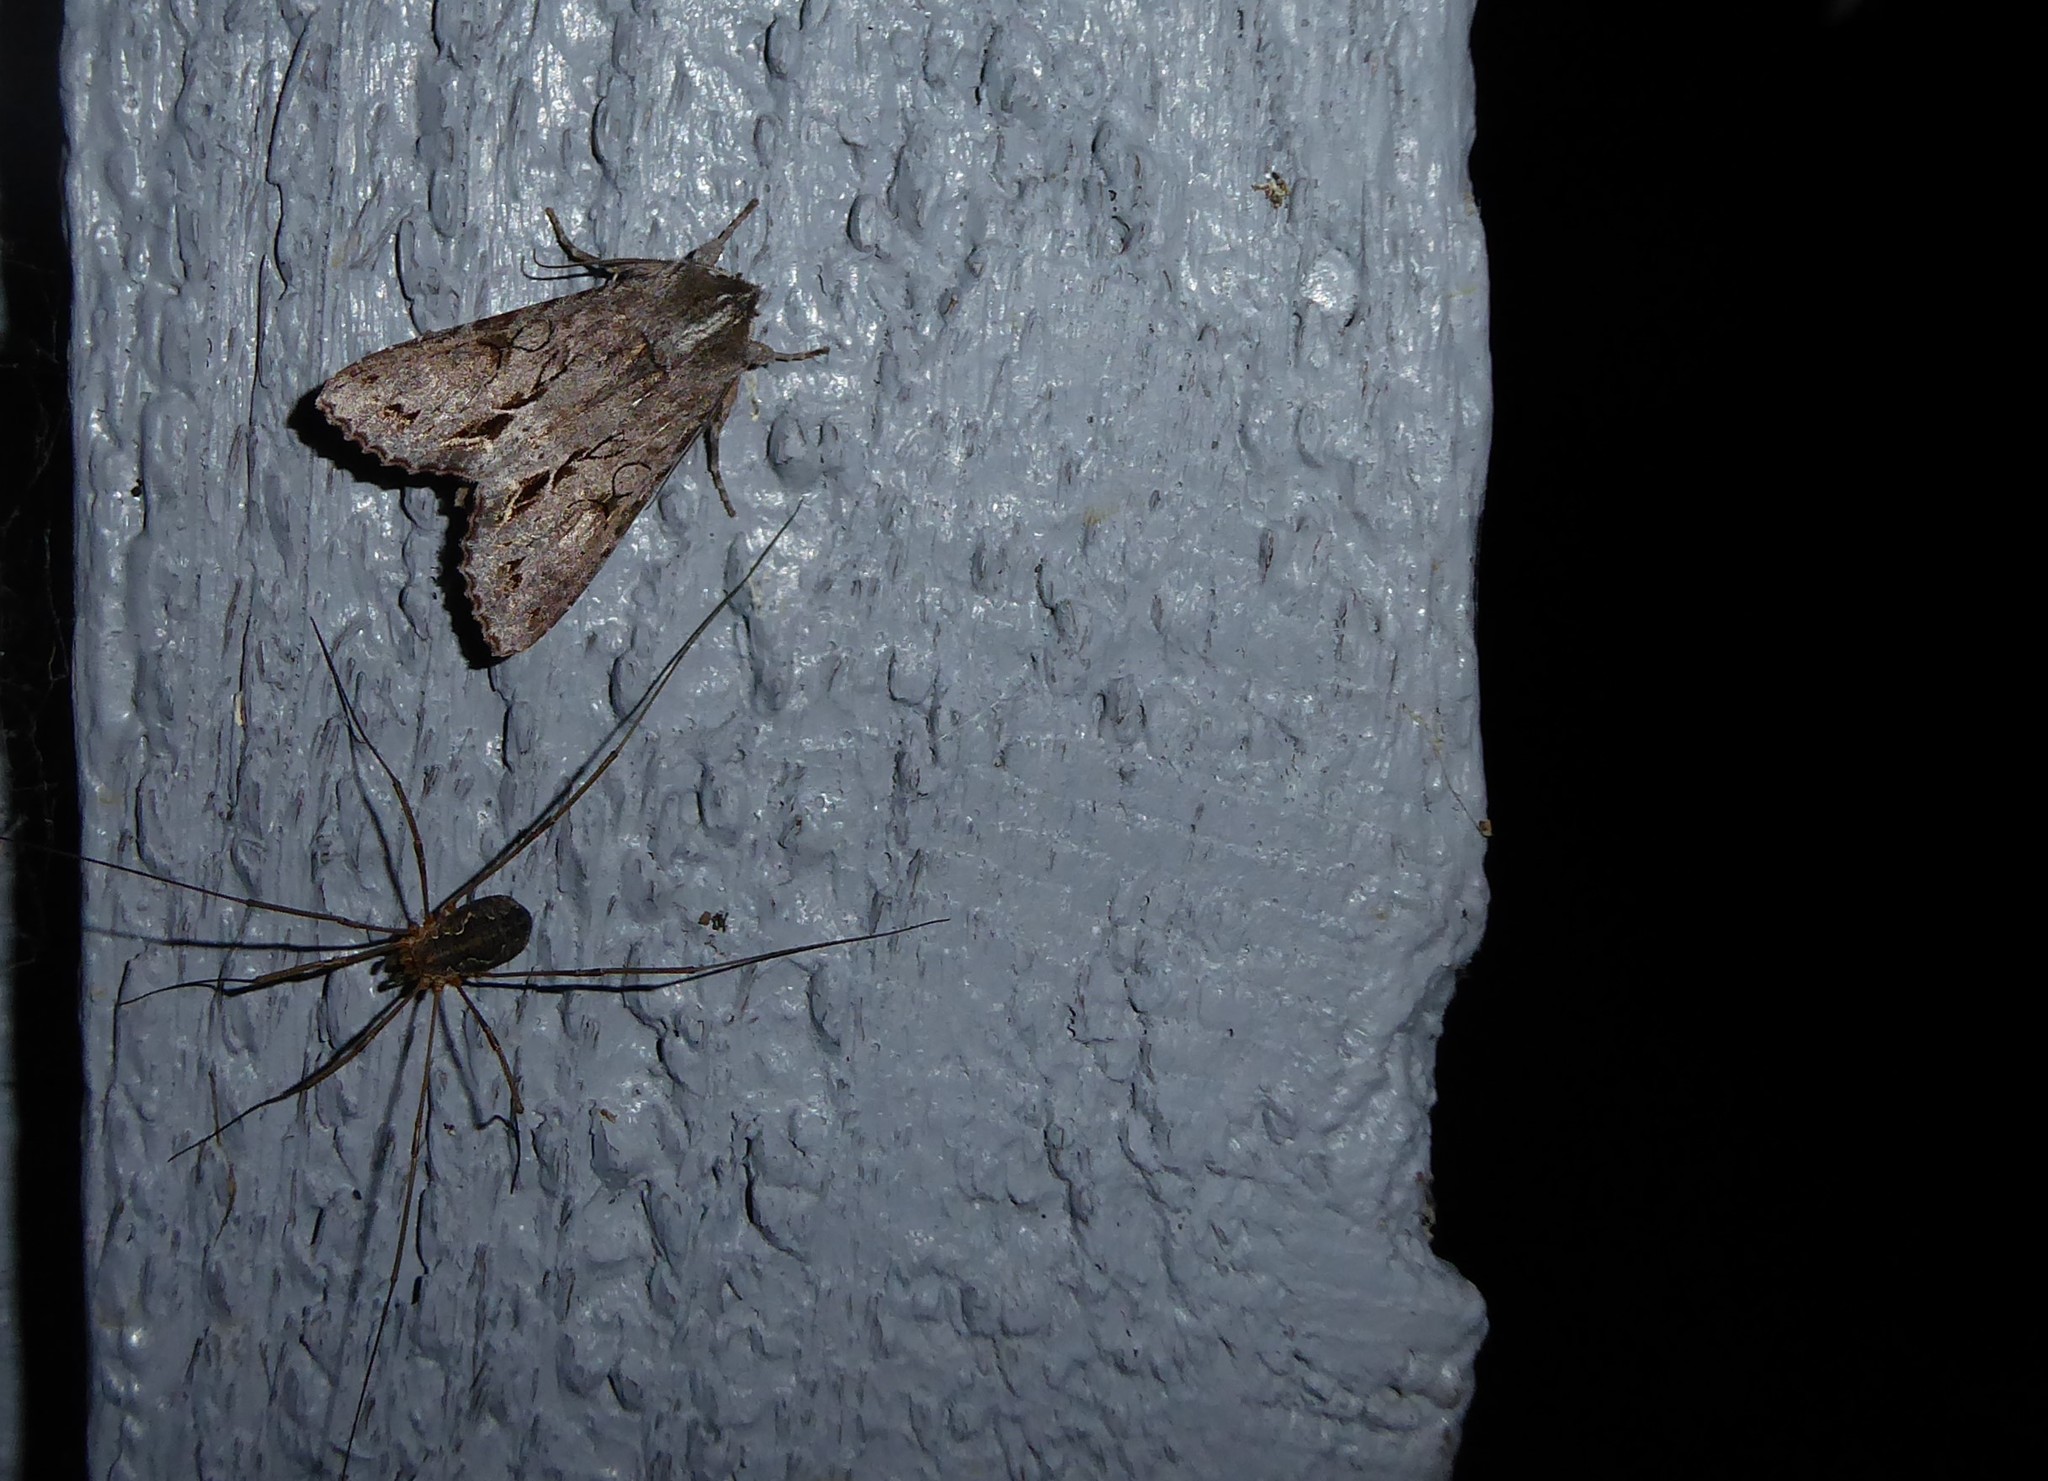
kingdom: Animalia
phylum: Arthropoda
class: Insecta
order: Lepidoptera
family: Noctuidae
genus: Ichneutica
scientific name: Ichneutica
